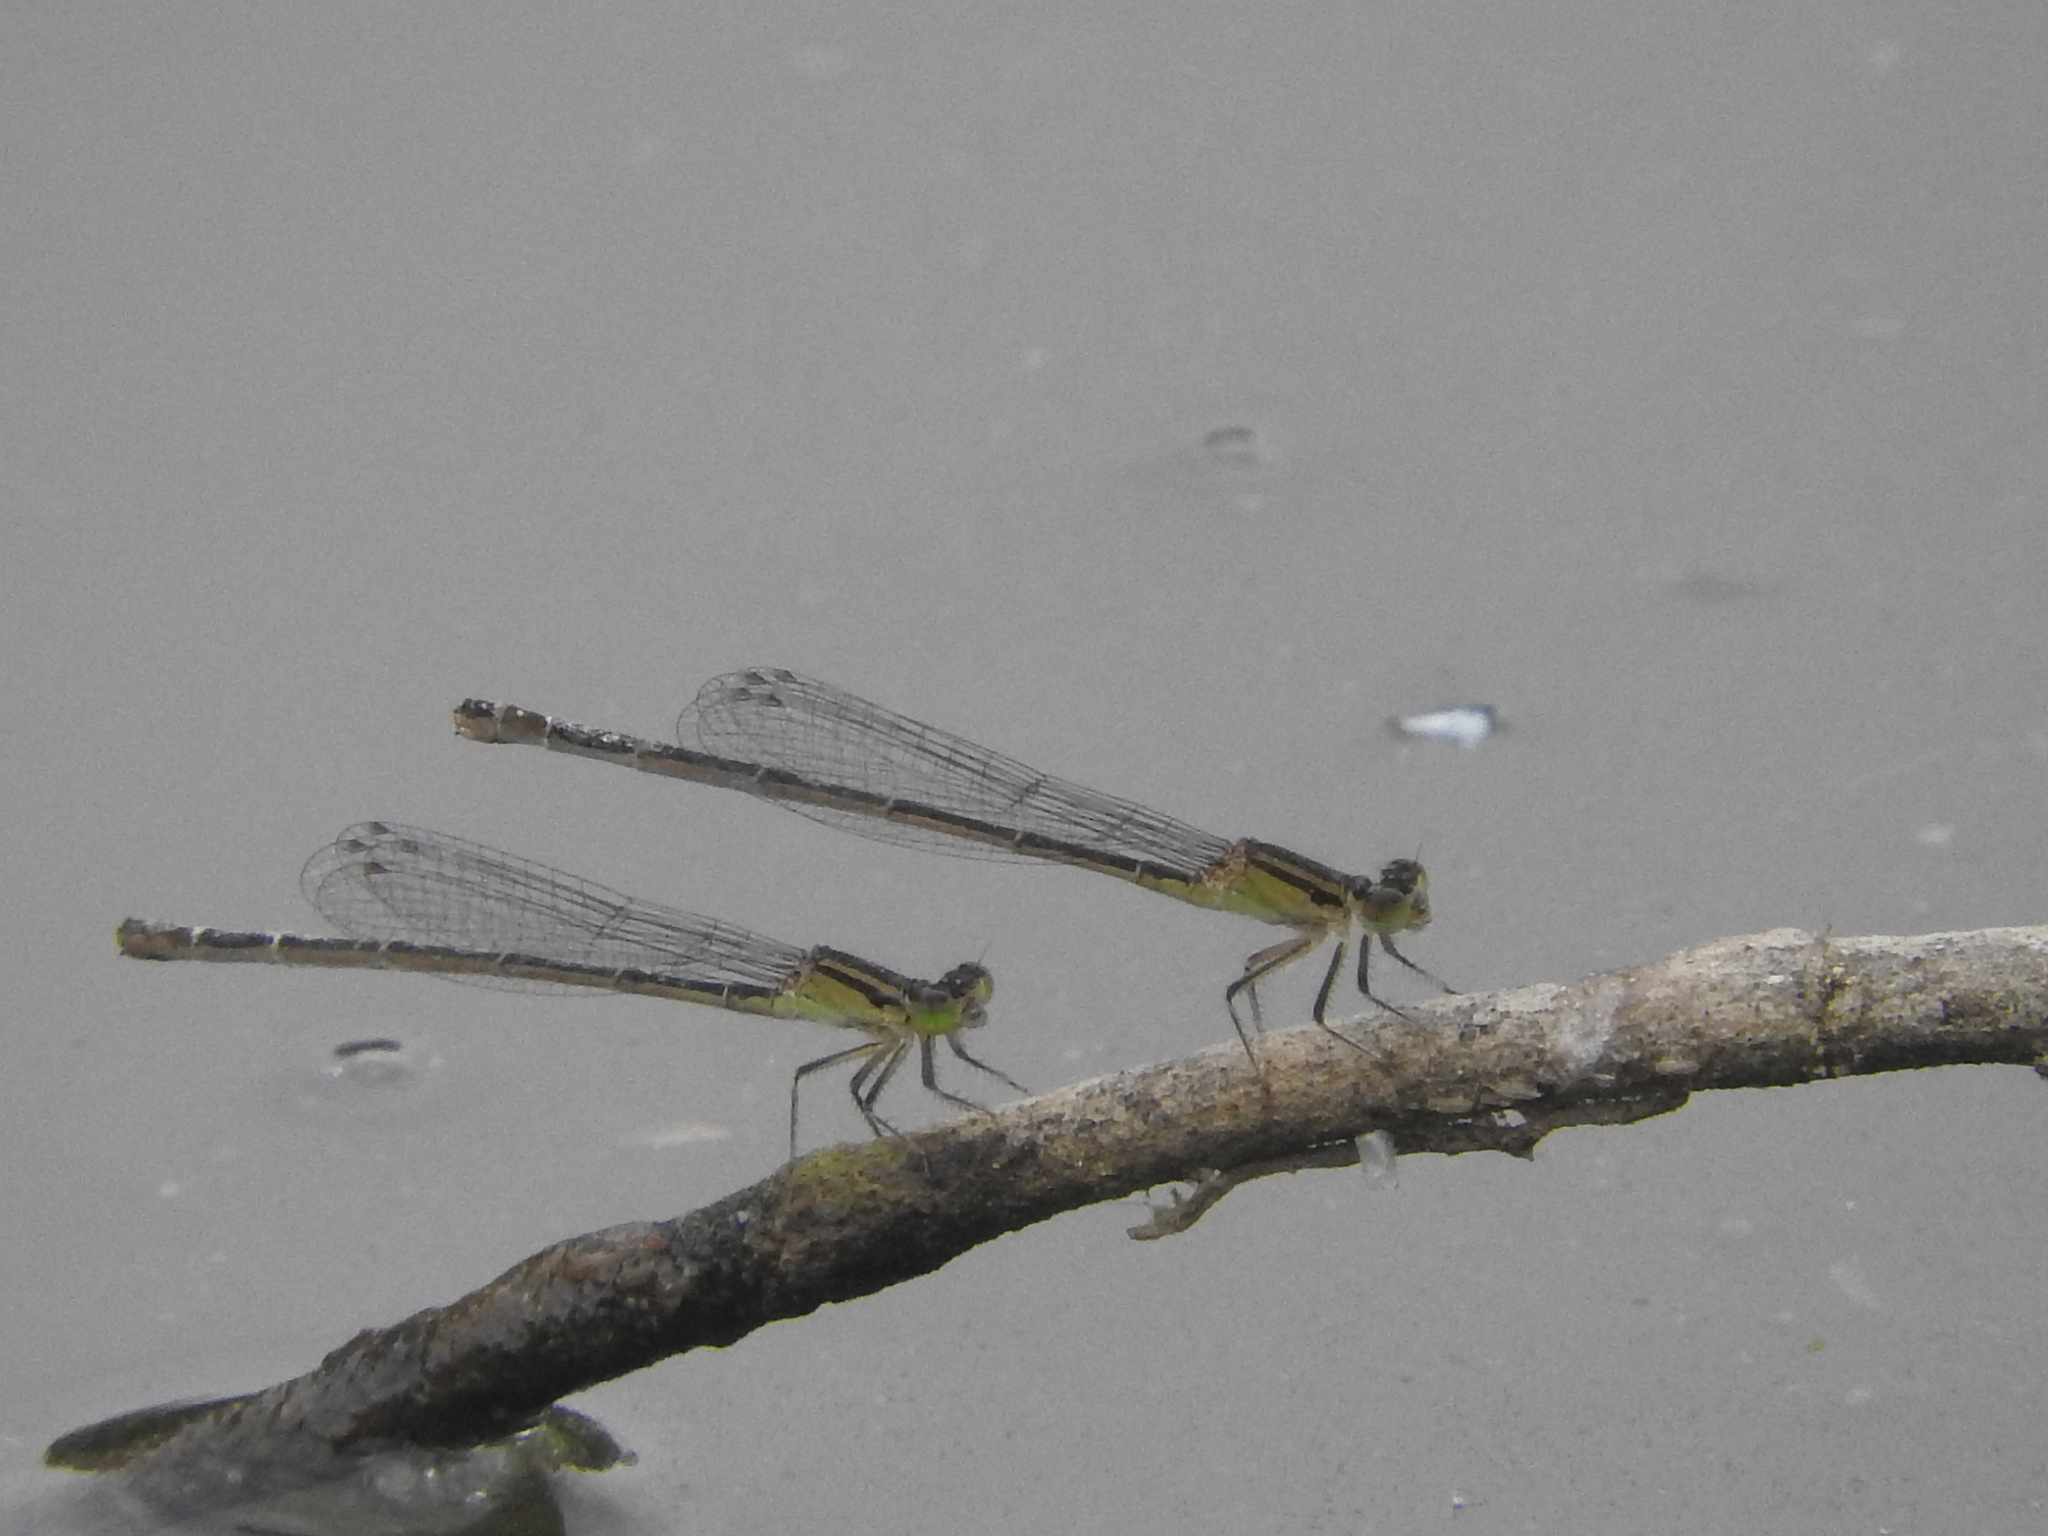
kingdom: Animalia
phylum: Arthropoda
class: Insecta
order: Odonata
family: Coenagrionidae
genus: Ischnura
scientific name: Ischnura elegans
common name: Blue-tailed damselfly
